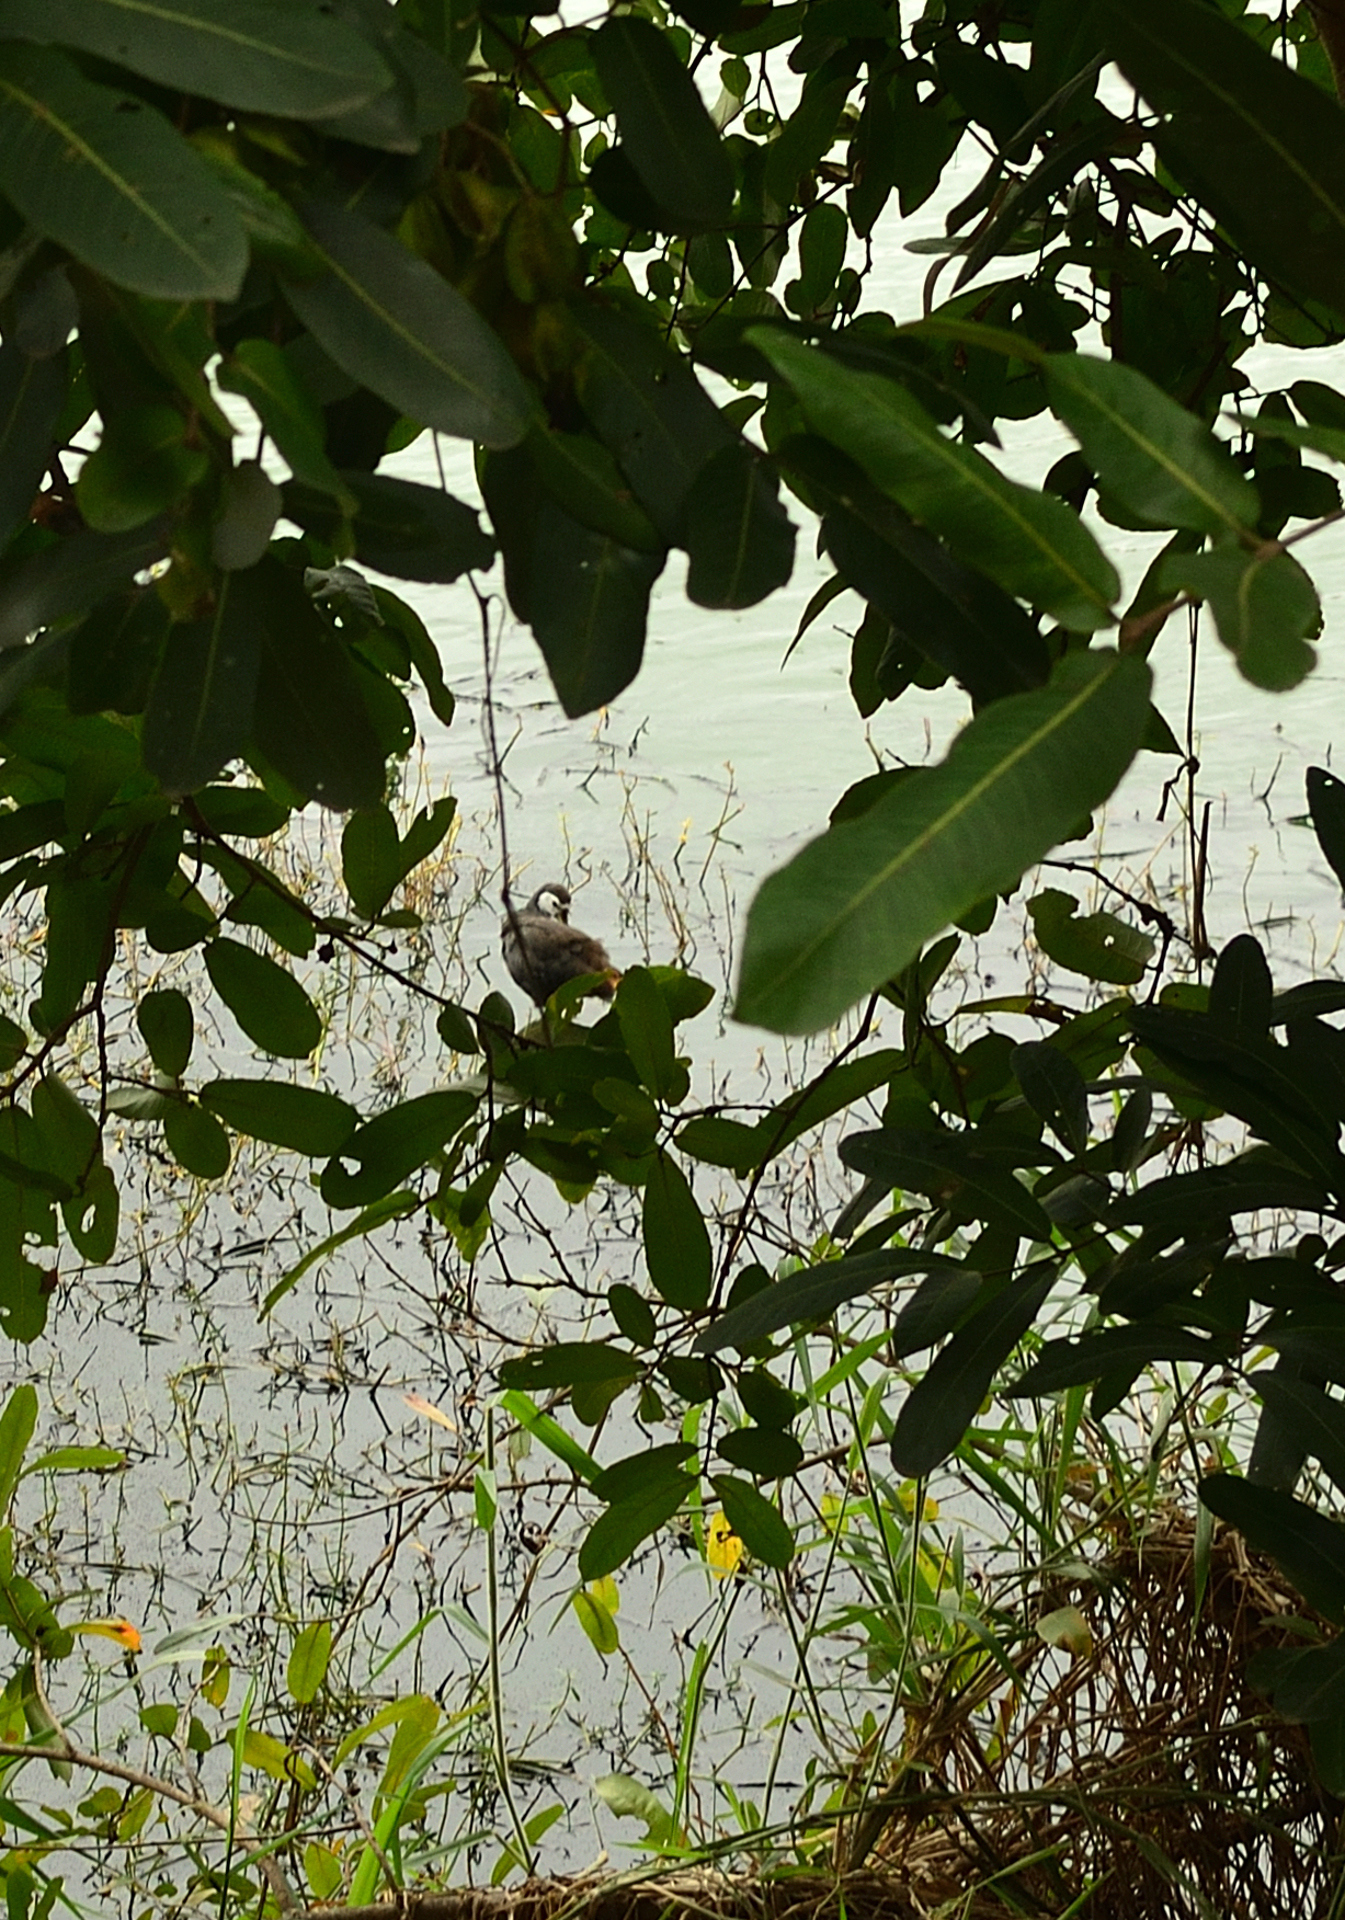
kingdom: Animalia
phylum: Chordata
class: Aves
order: Gruiformes
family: Rallidae
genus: Amaurornis
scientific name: Amaurornis phoenicurus
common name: White-breasted waterhen
